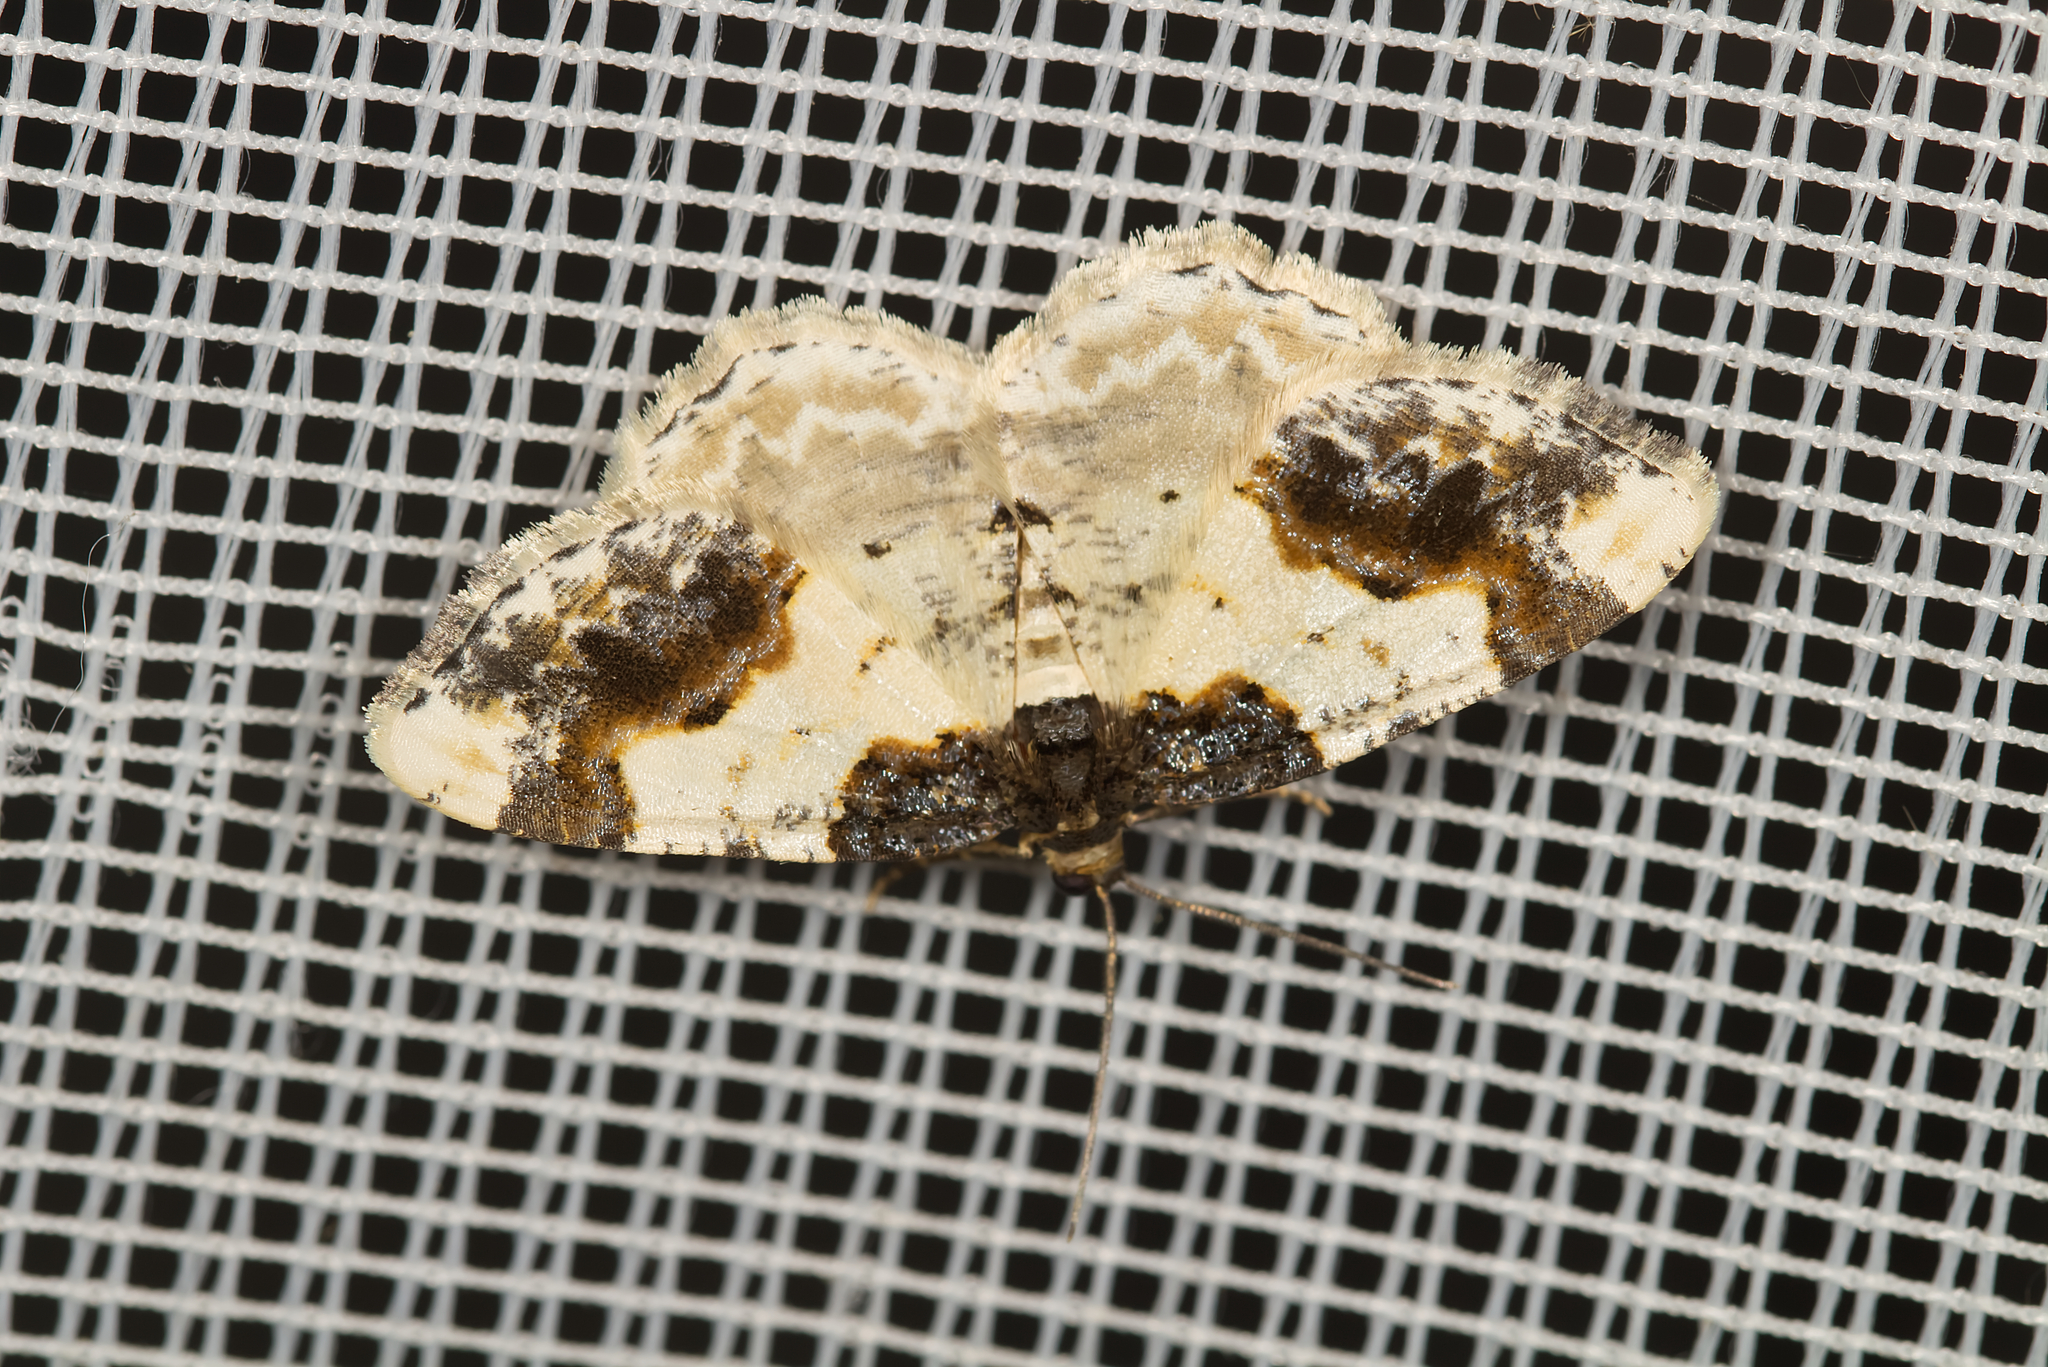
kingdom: Animalia
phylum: Arthropoda
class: Insecta
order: Lepidoptera
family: Geometridae
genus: Ligdia
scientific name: Ligdia adustata
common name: Scorched carpet
